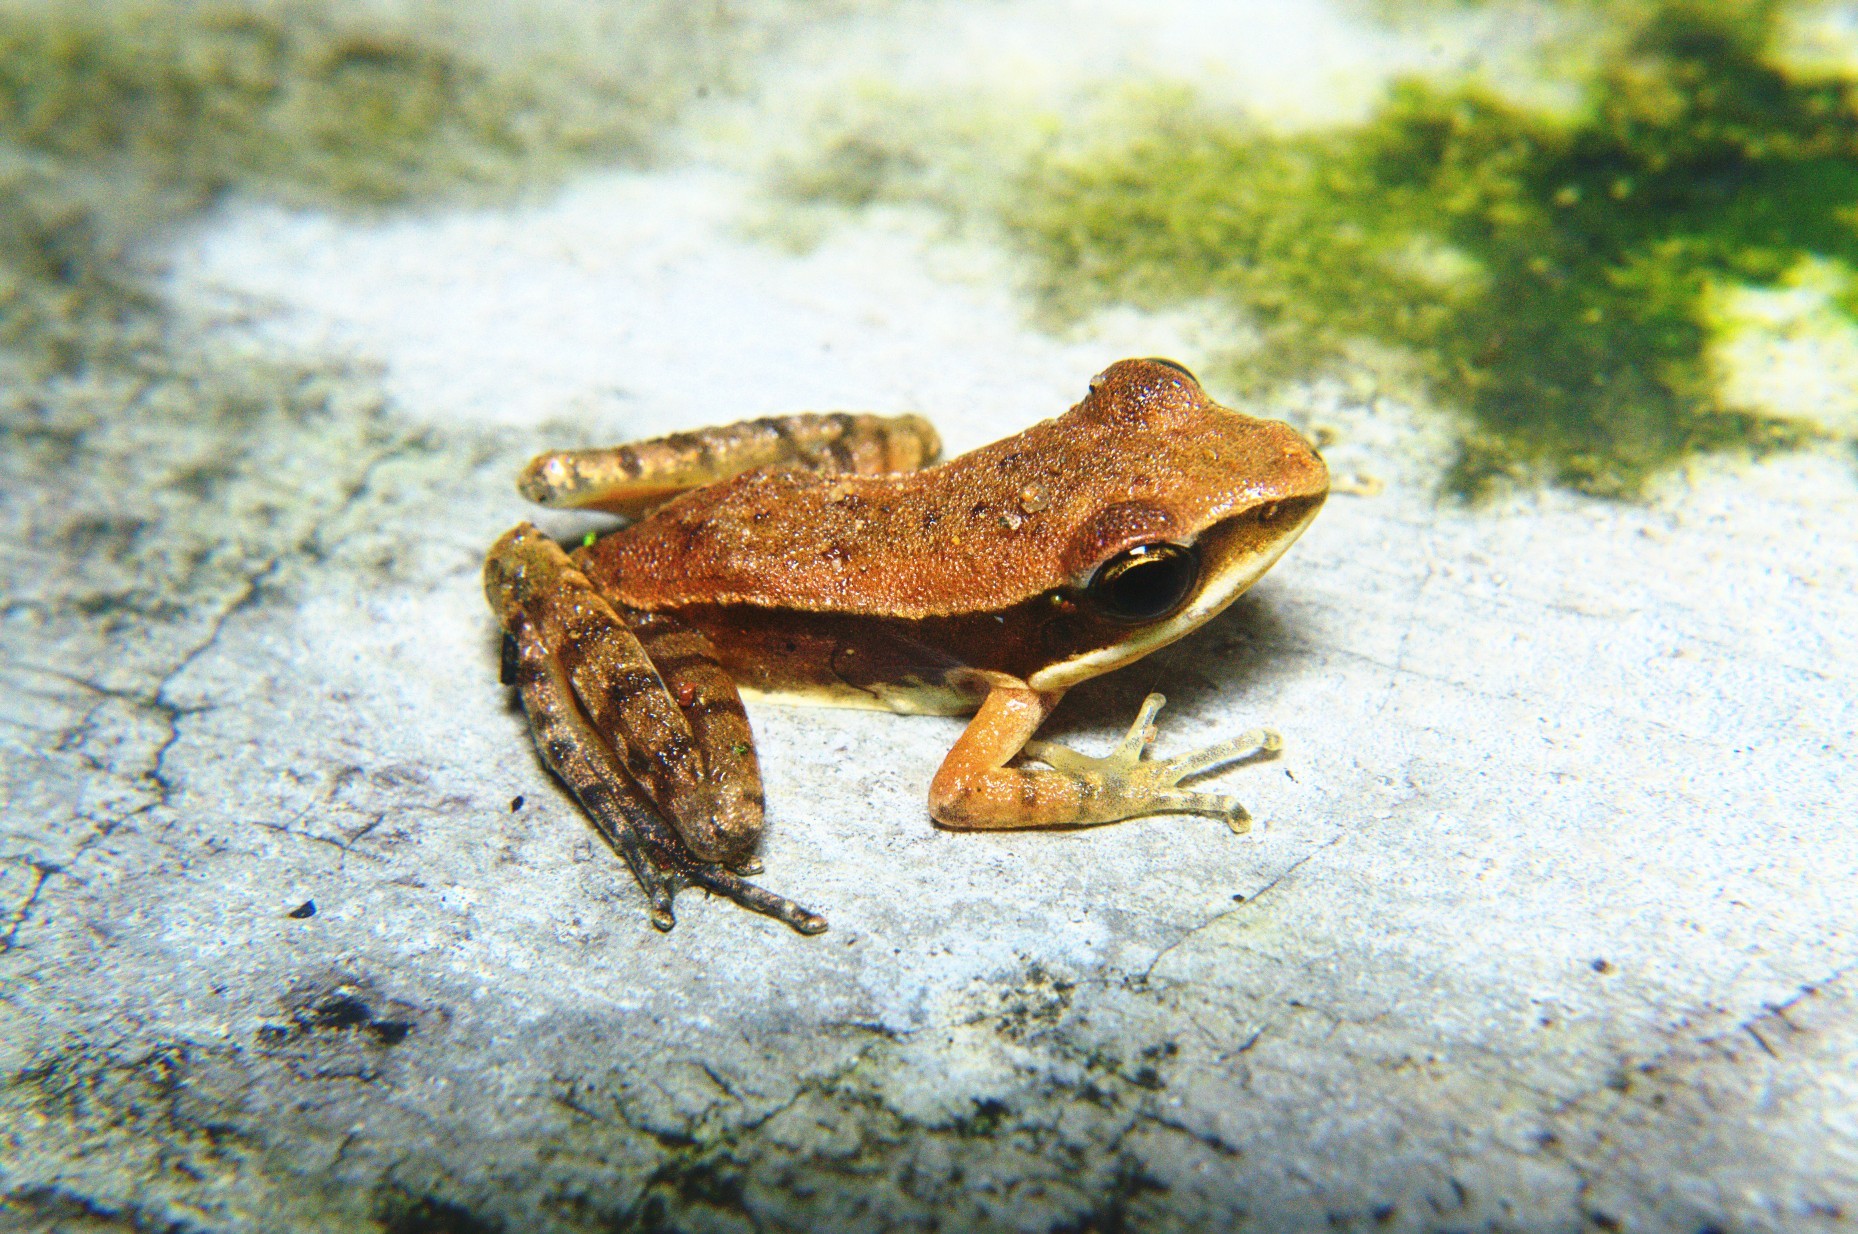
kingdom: Animalia
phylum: Chordata
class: Amphibia
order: Anura
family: Ranidae
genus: Hydrophylax
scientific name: Hydrophylax leptoglossa
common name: Cope's assam frog
